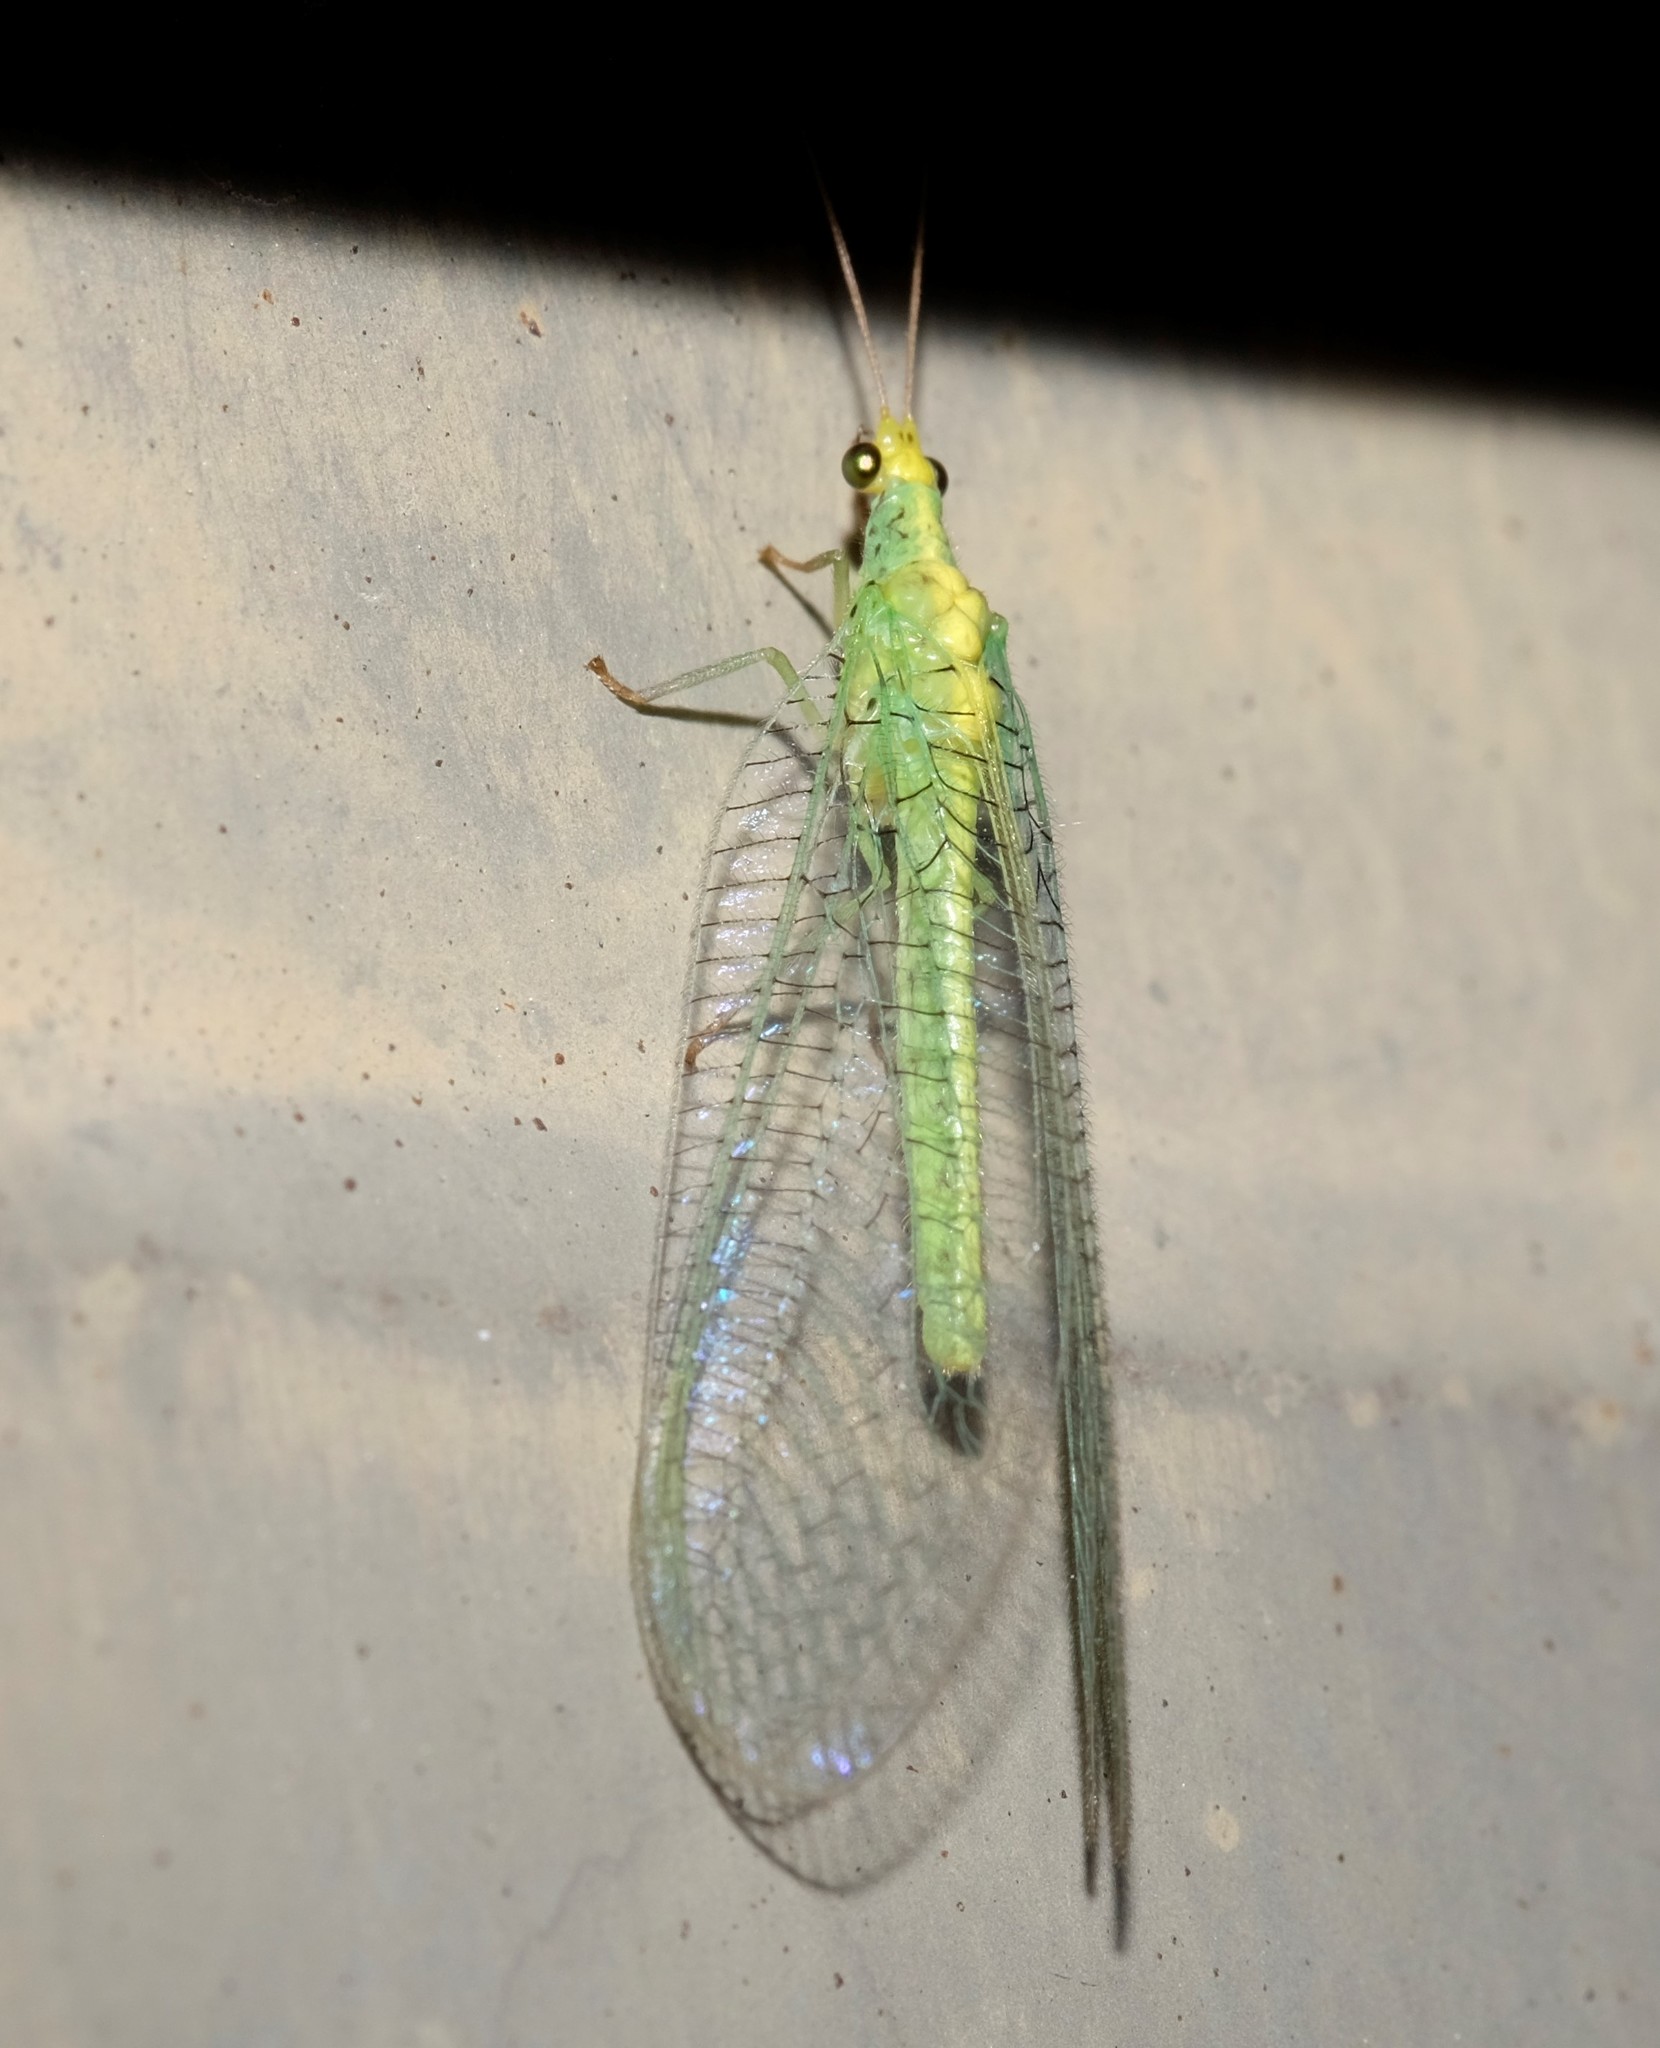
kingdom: Animalia
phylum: Arthropoda
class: Insecta
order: Neuroptera
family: Chrysopidae
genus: Pseudomallada
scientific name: Pseudomallada edwardsi
